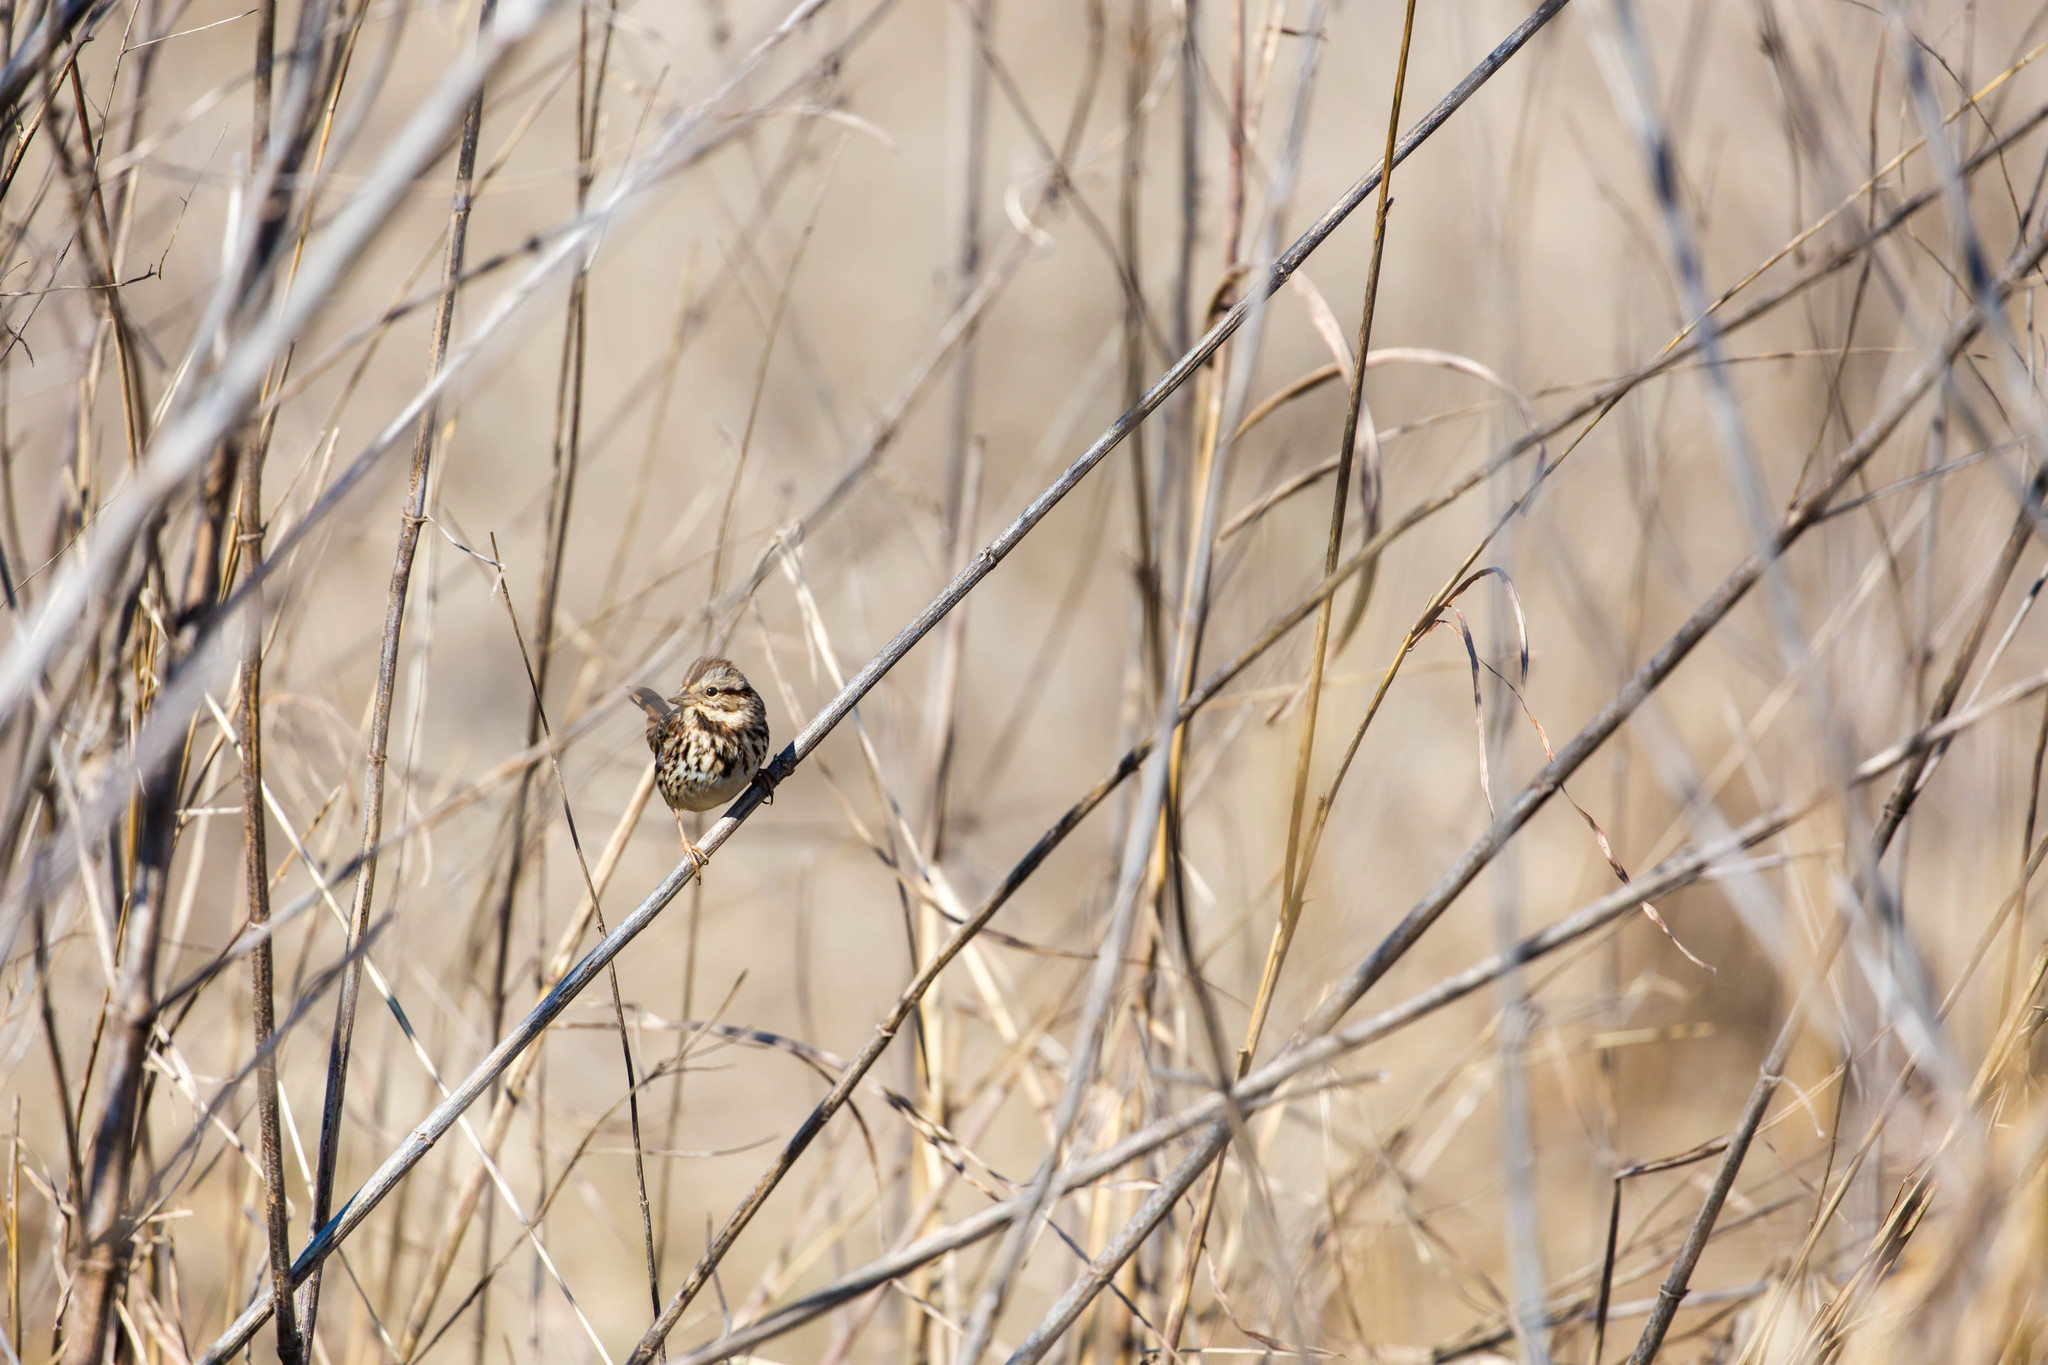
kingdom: Animalia
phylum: Chordata
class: Aves
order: Passeriformes
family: Passerellidae
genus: Melospiza
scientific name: Melospiza melodia
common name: Song sparrow
